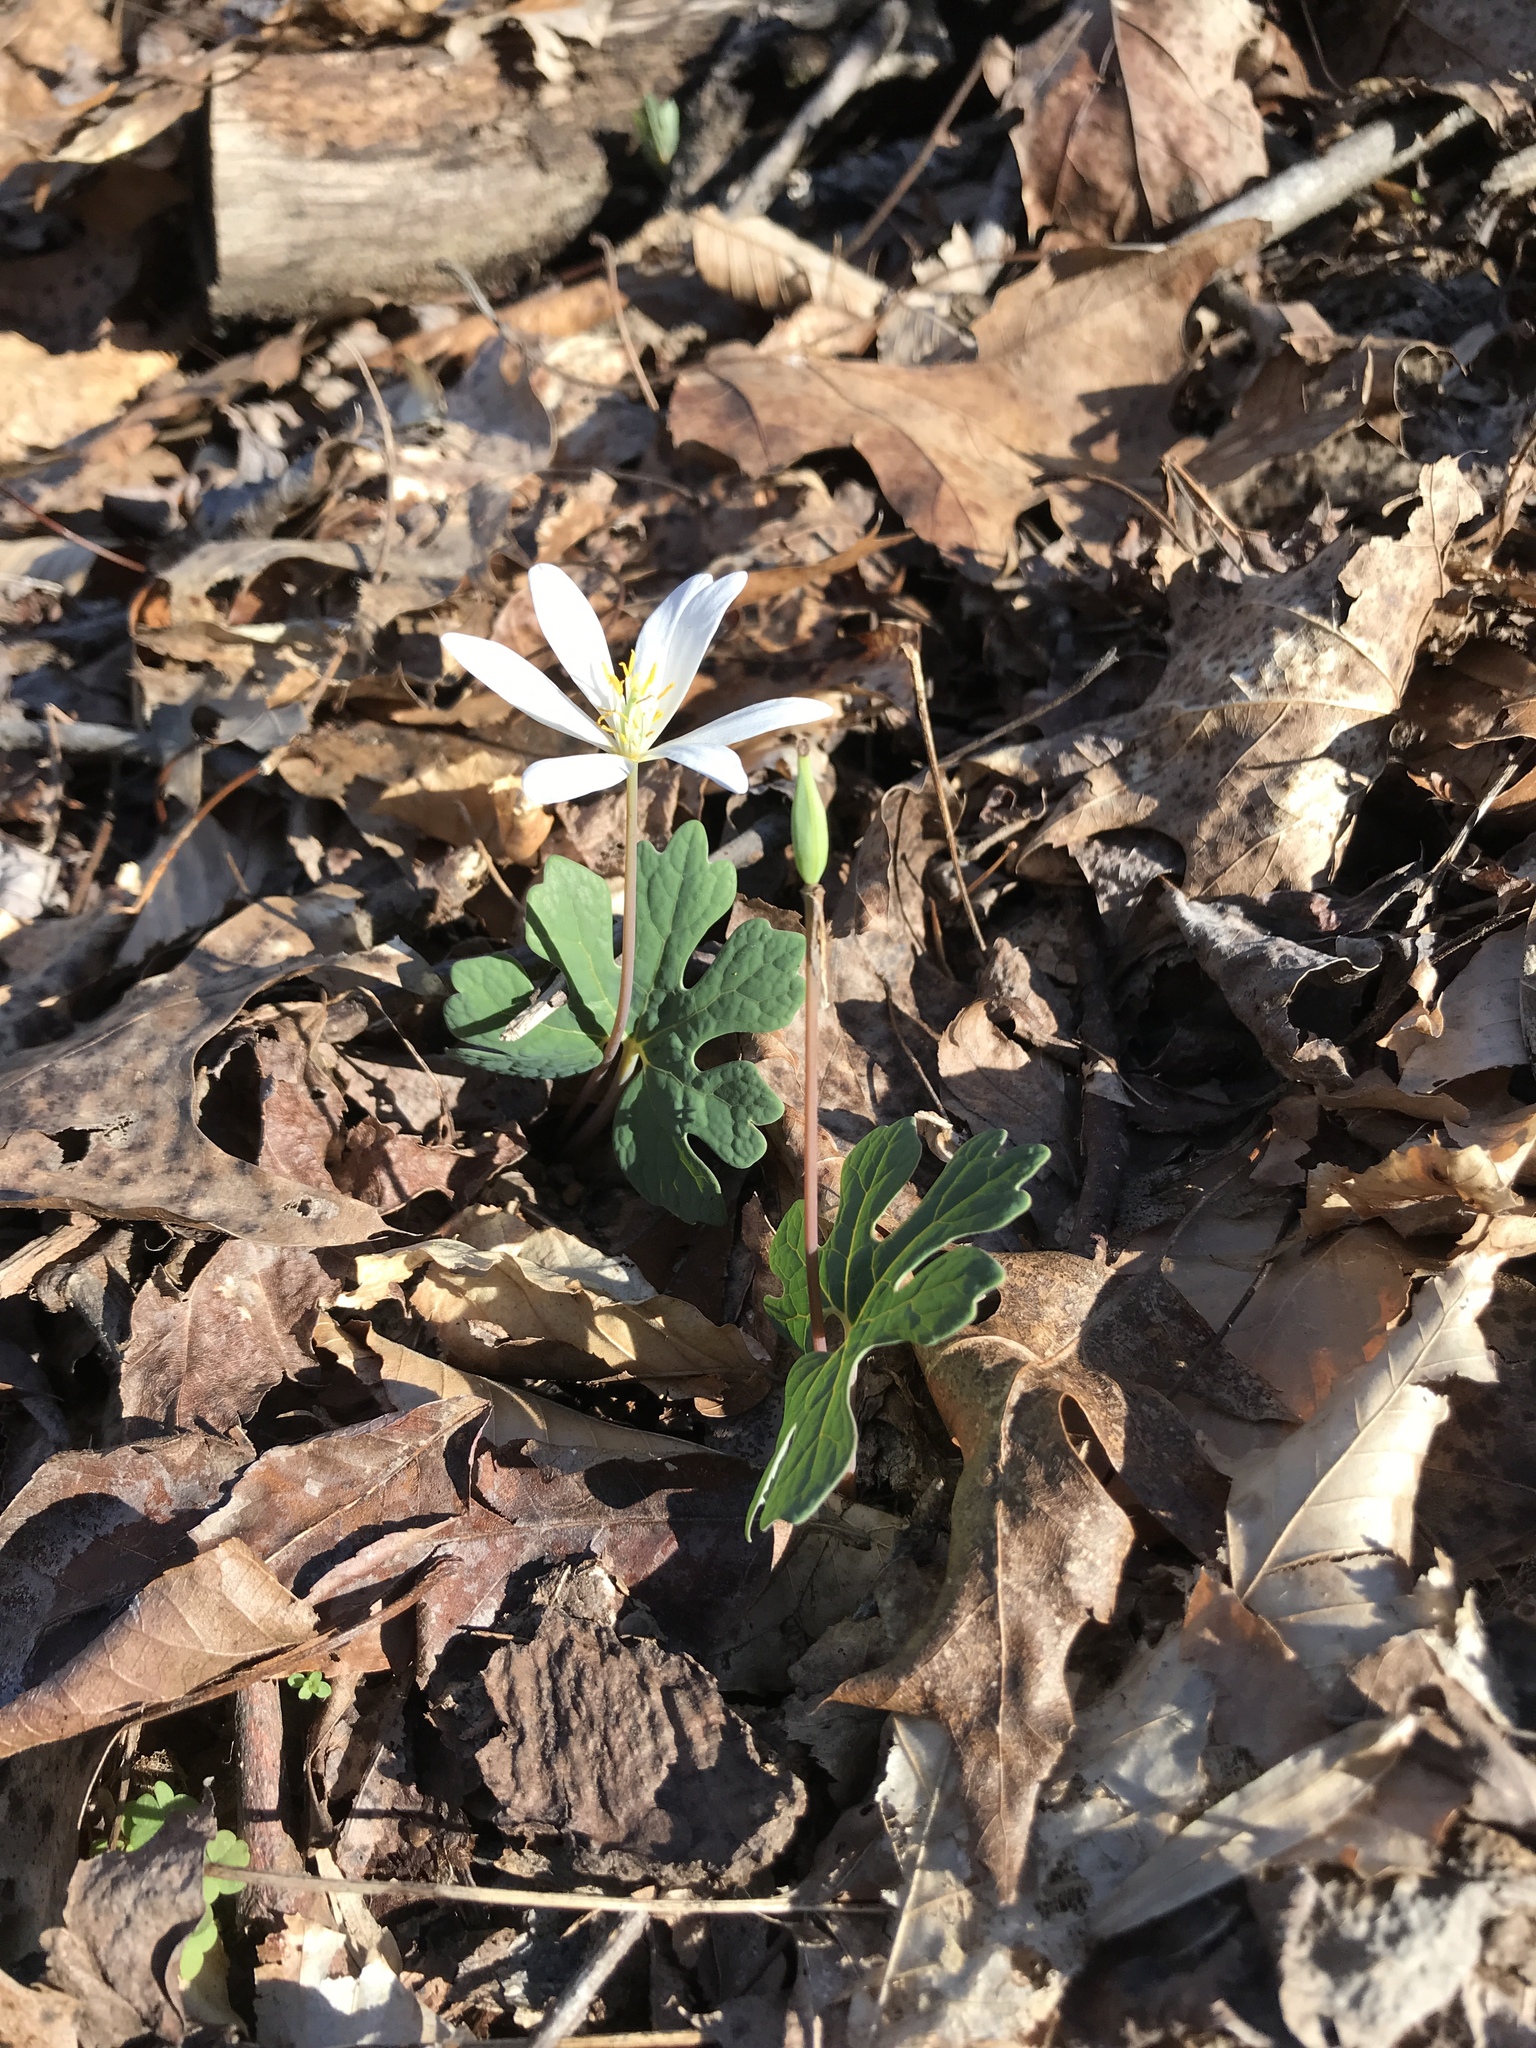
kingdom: Plantae
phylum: Tracheophyta
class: Magnoliopsida
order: Ranunculales
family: Papaveraceae
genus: Sanguinaria
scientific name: Sanguinaria canadensis
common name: Bloodroot
